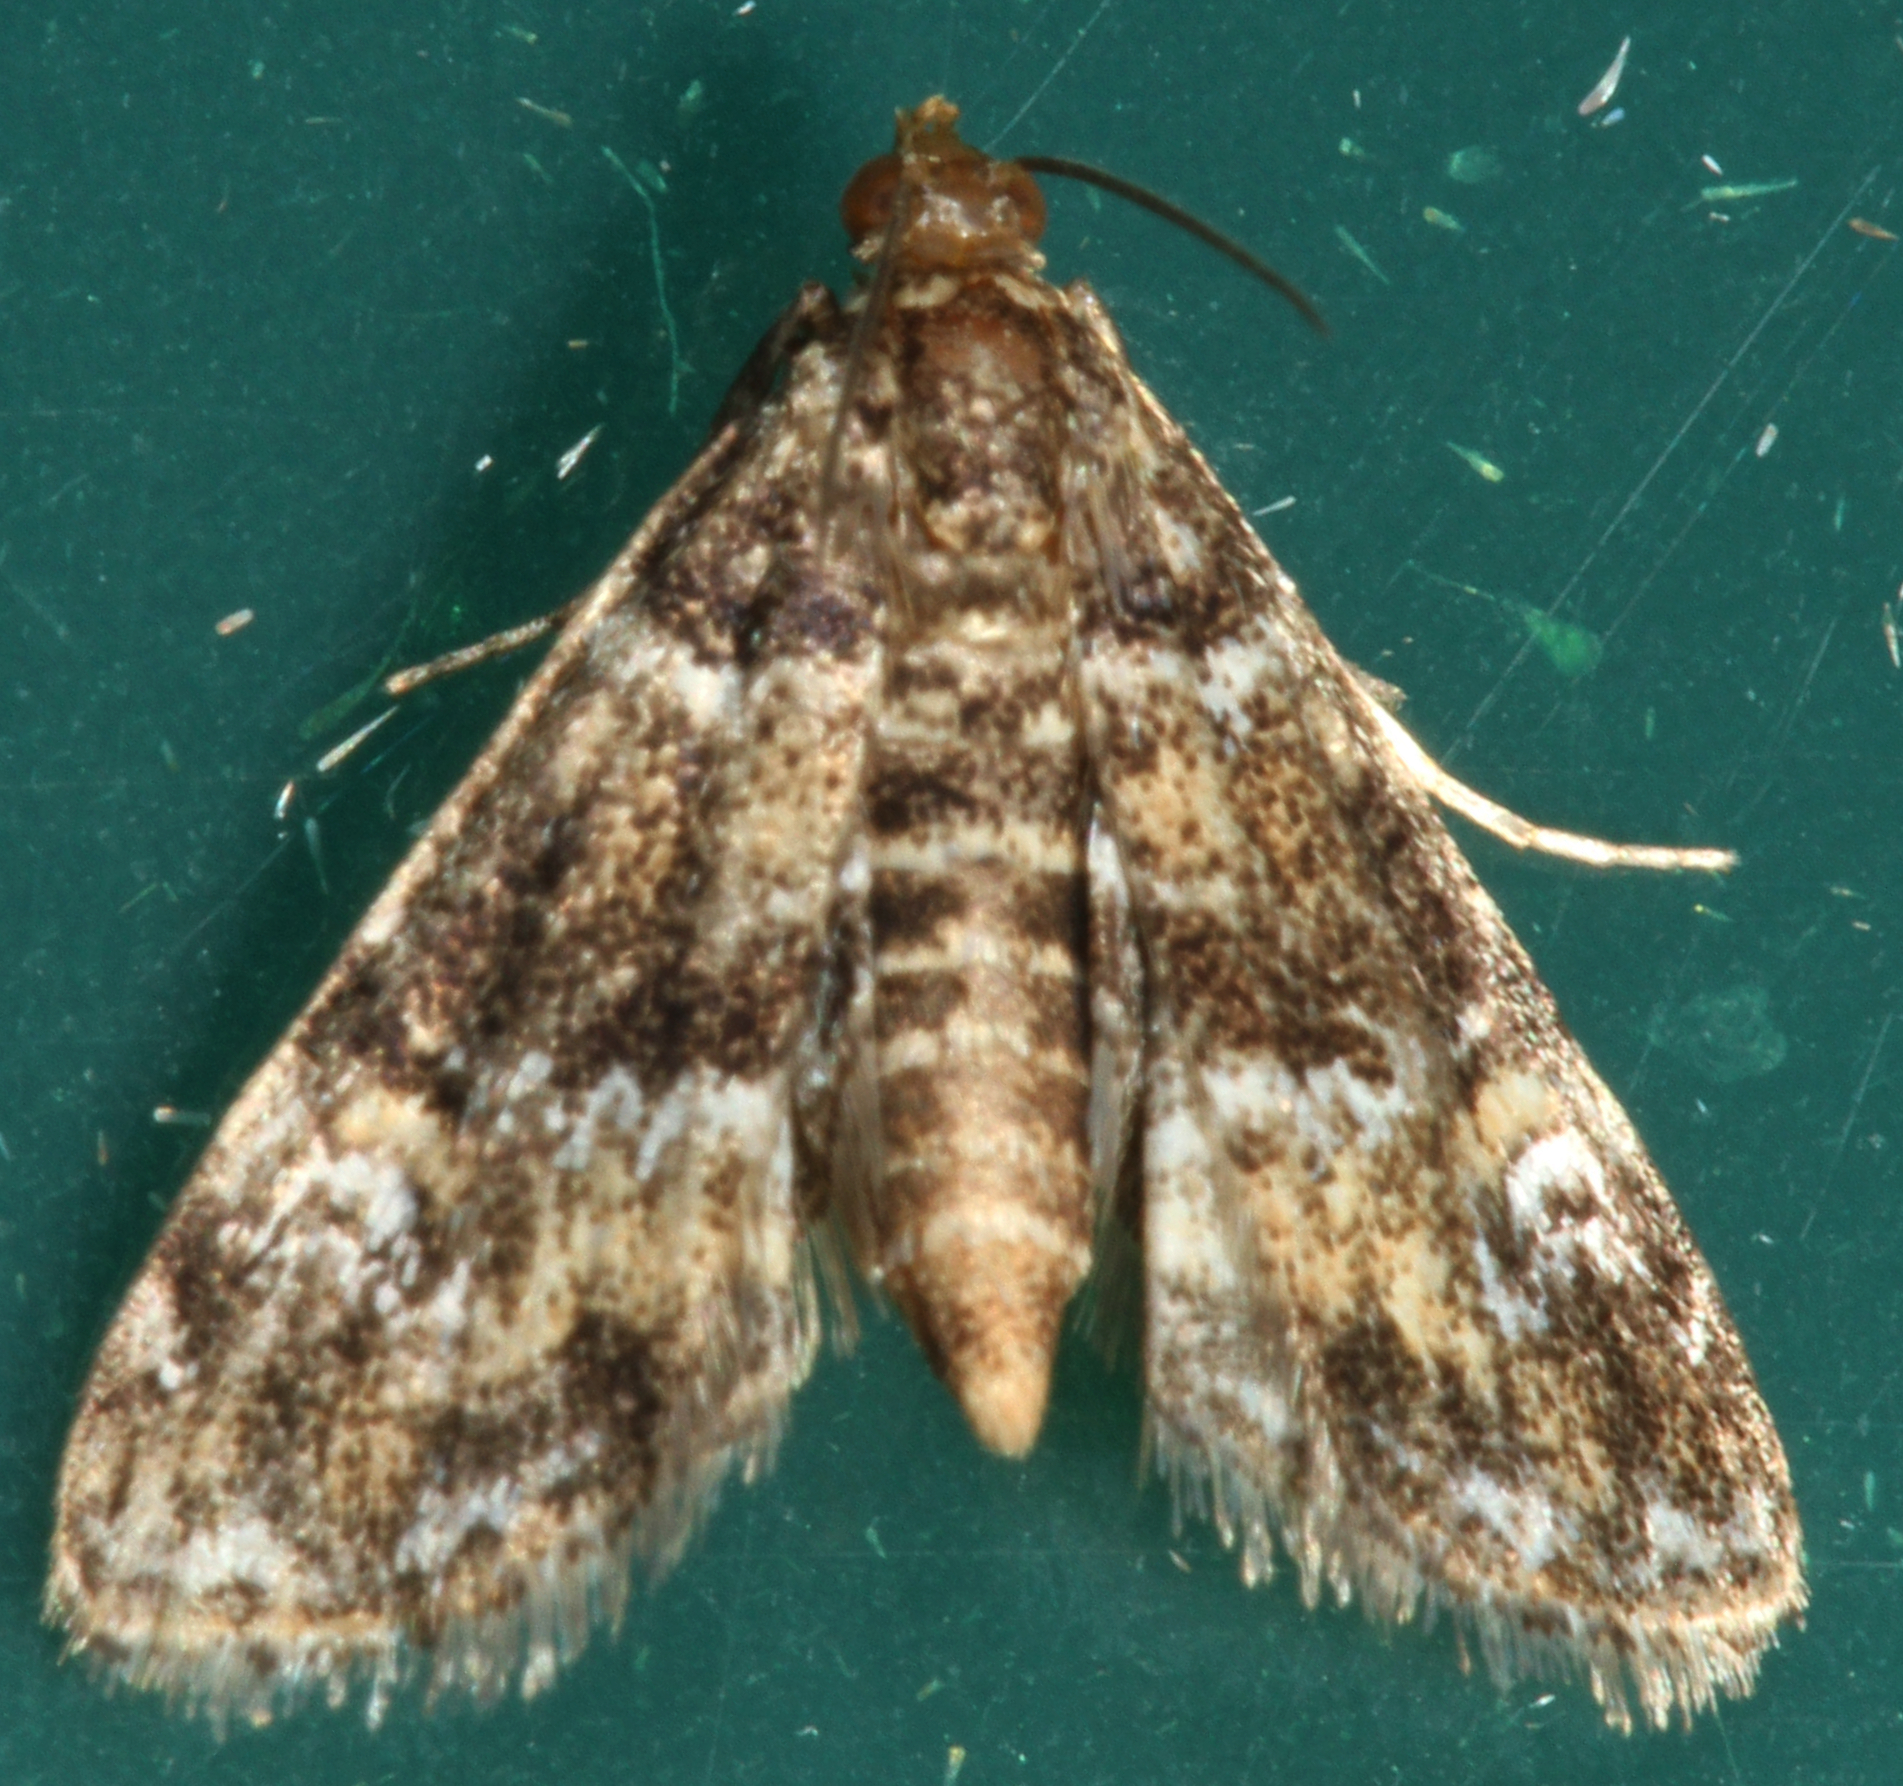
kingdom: Animalia
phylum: Arthropoda
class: Insecta
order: Lepidoptera
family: Crambidae
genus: Elophila
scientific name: Elophila obliteralis
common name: Waterlily leafcutter moth
